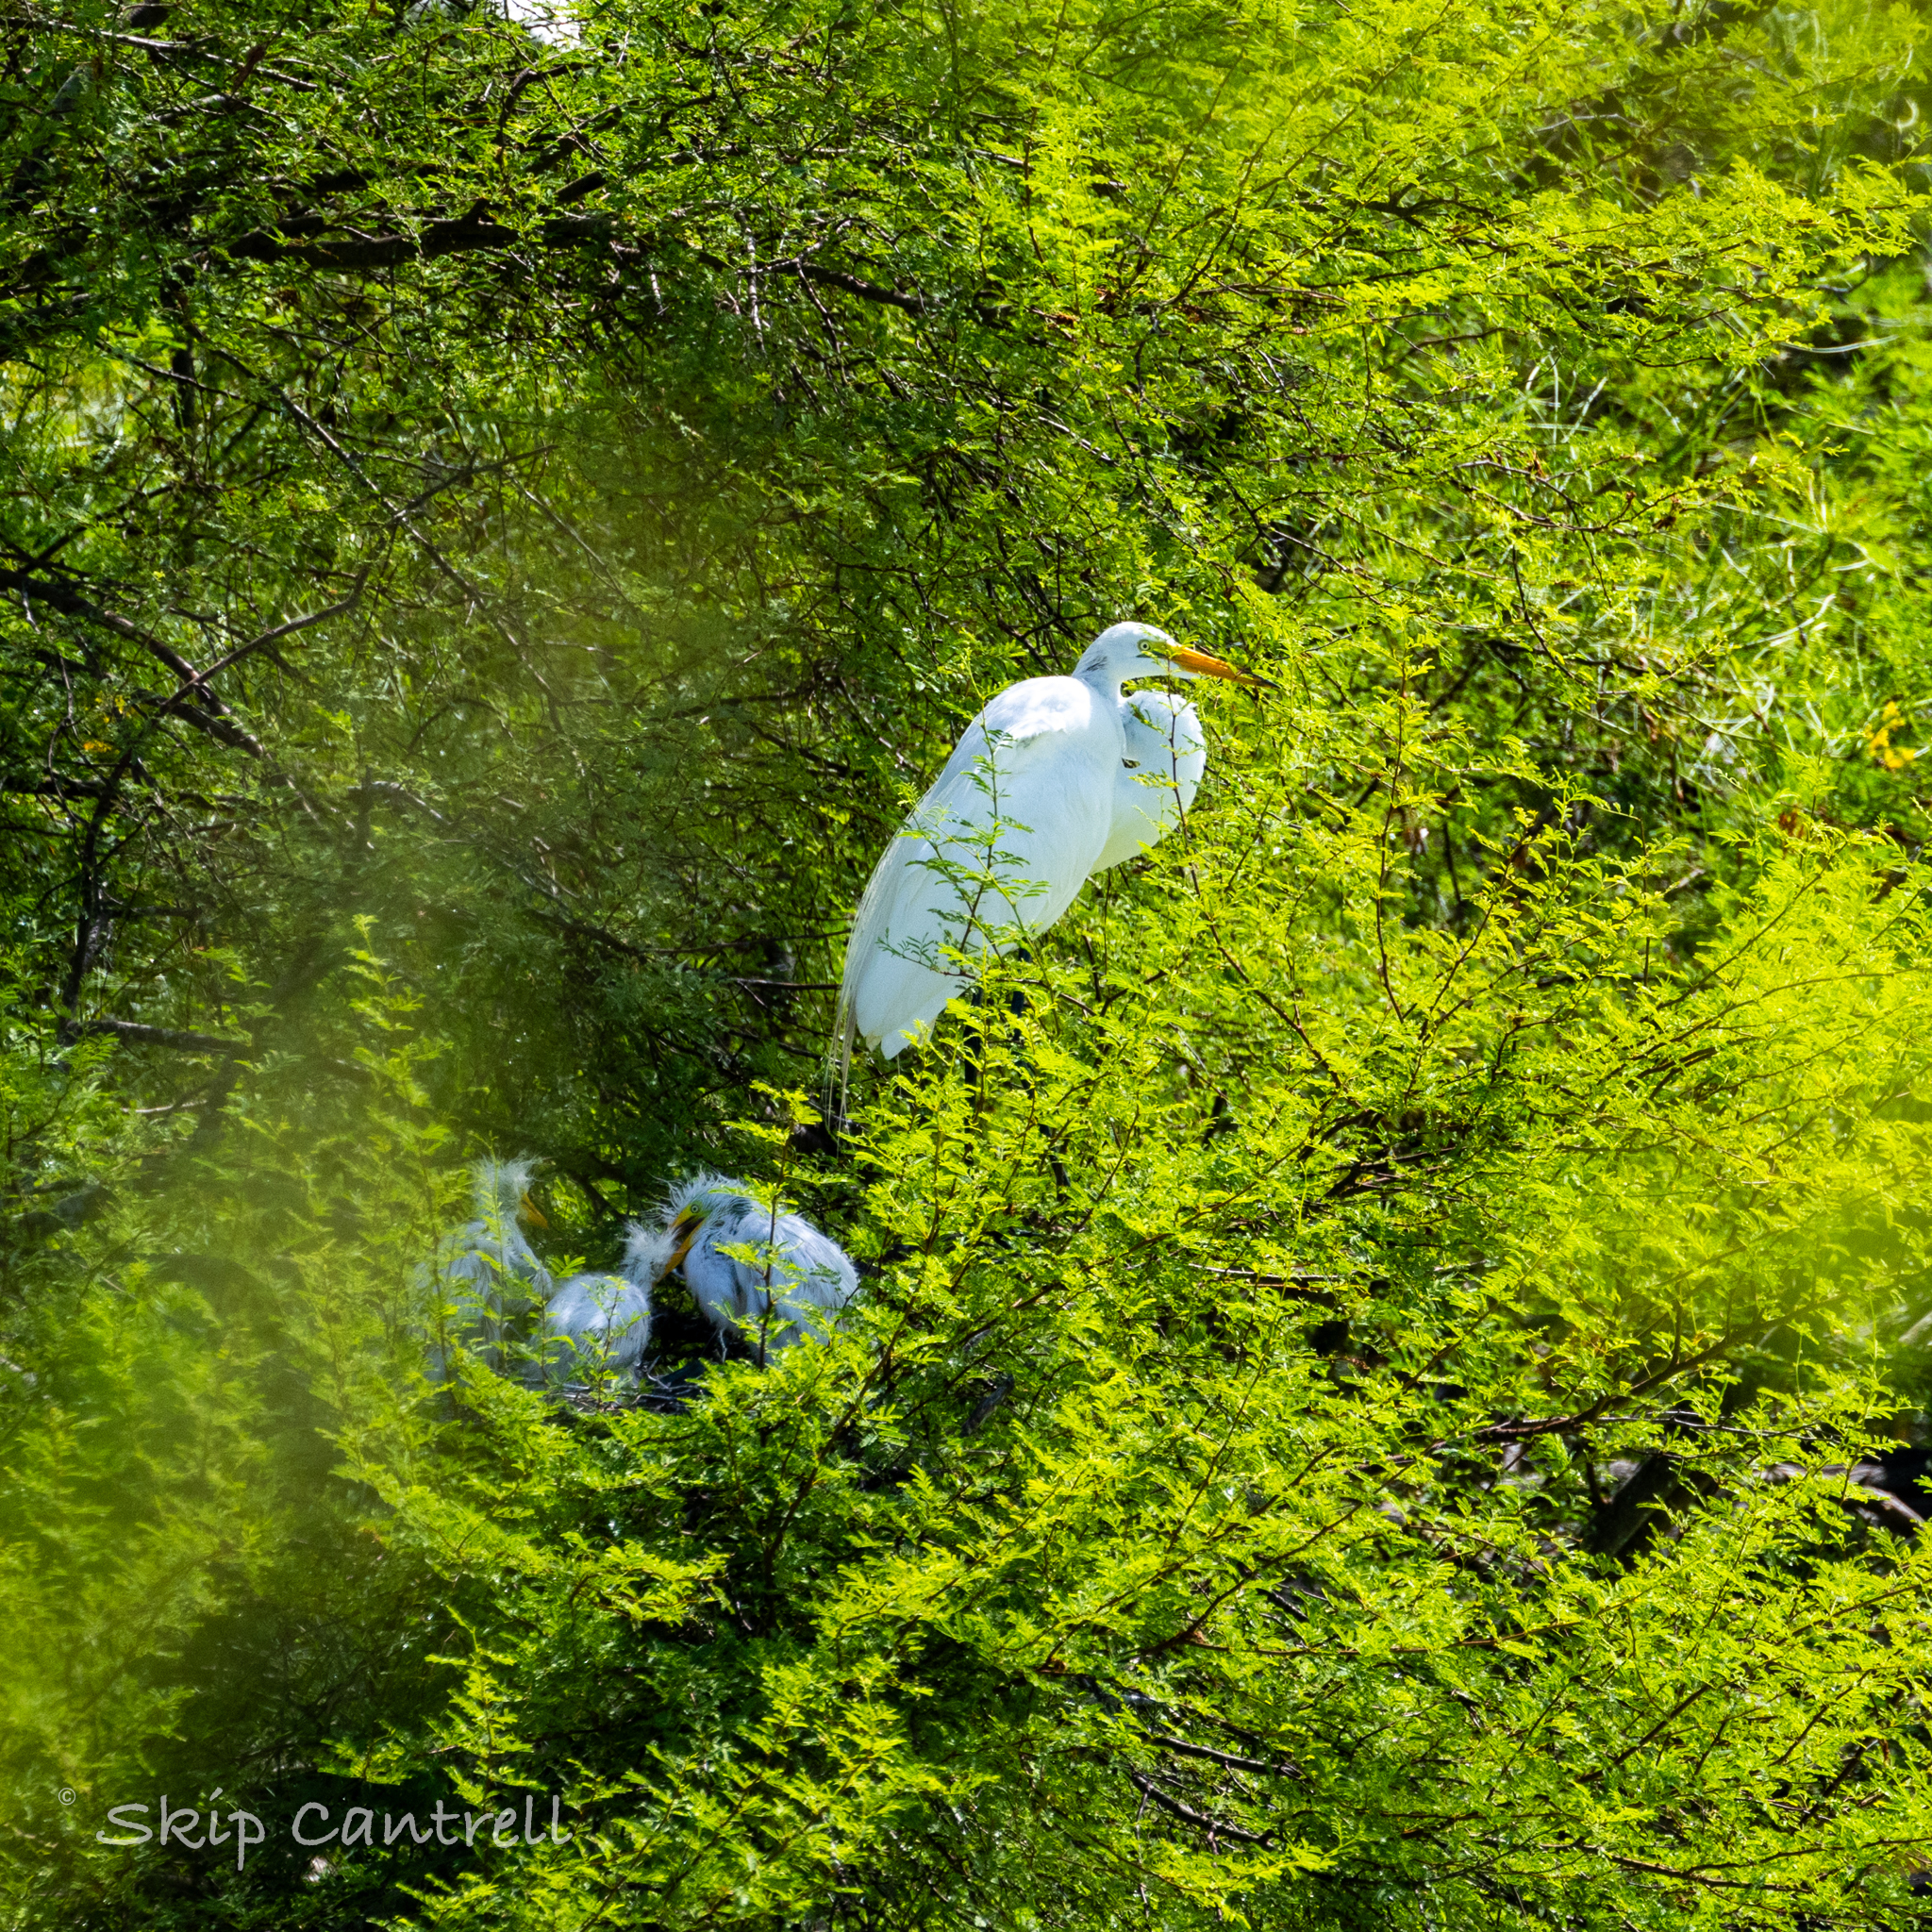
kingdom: Animalia
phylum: Chordata
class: Aves
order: Pelecaniformes
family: Ardeidae
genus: Ardea
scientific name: Ardea alba
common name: Great egret
